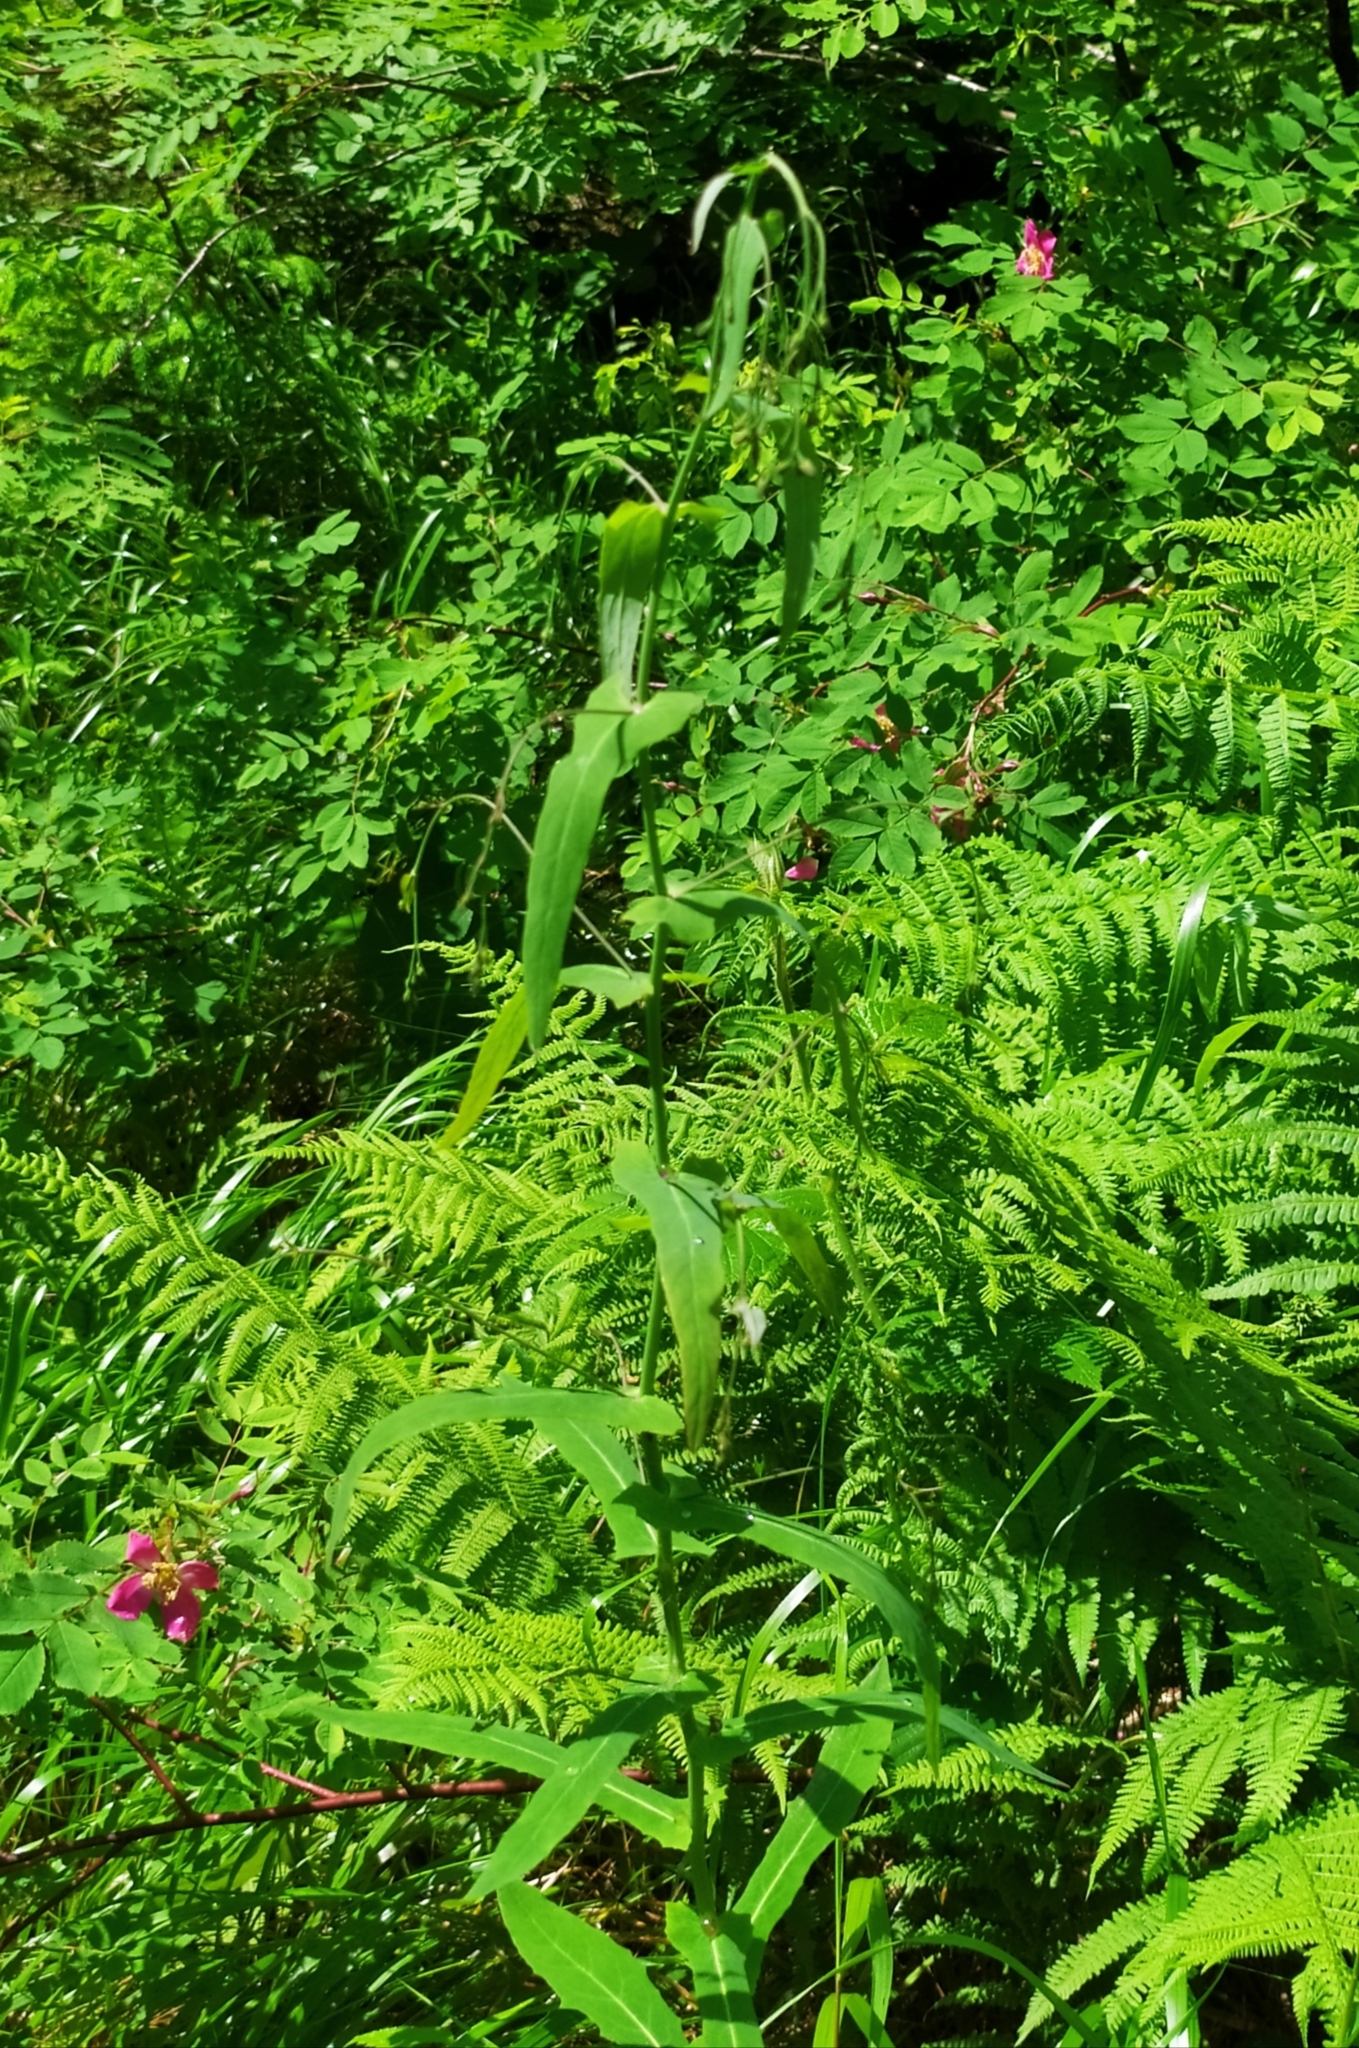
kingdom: Plantae
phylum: Tracheophyta
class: Magnoliopsida
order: Asterales
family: Asteraceae
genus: Prenanthes
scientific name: Prenanthes purpurea
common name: Purple lettuce
